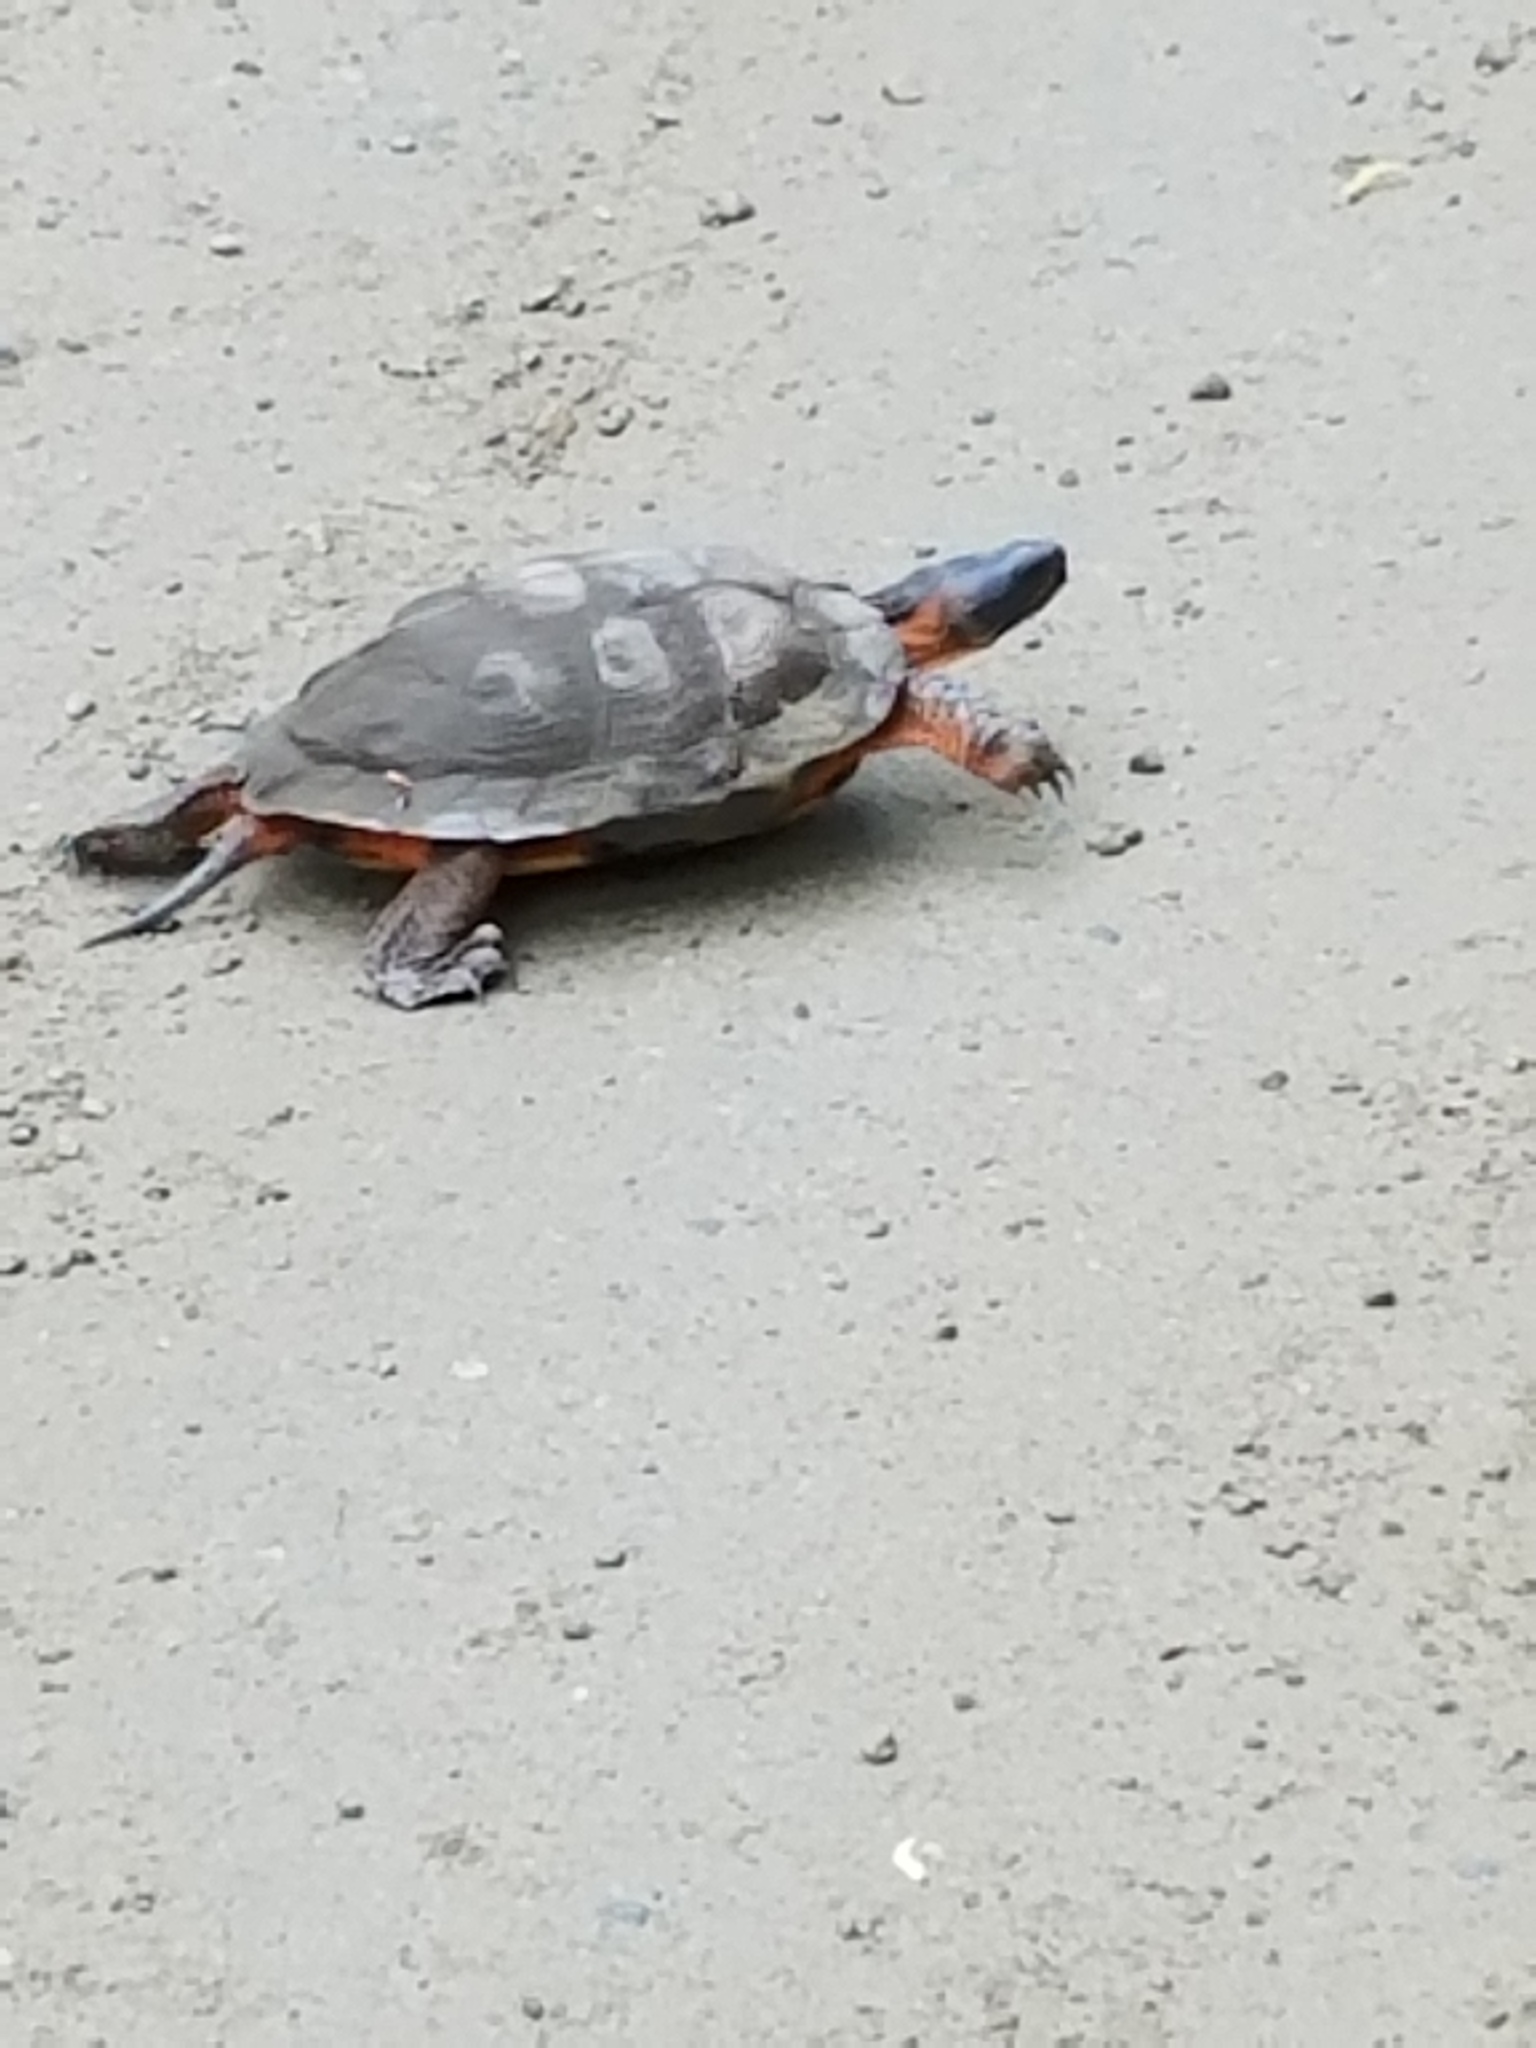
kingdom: Animalia
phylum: Chordata
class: Testudines
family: Emydidae
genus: Glyptemys
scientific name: Glyptemys insculpta
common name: Wood turtle
